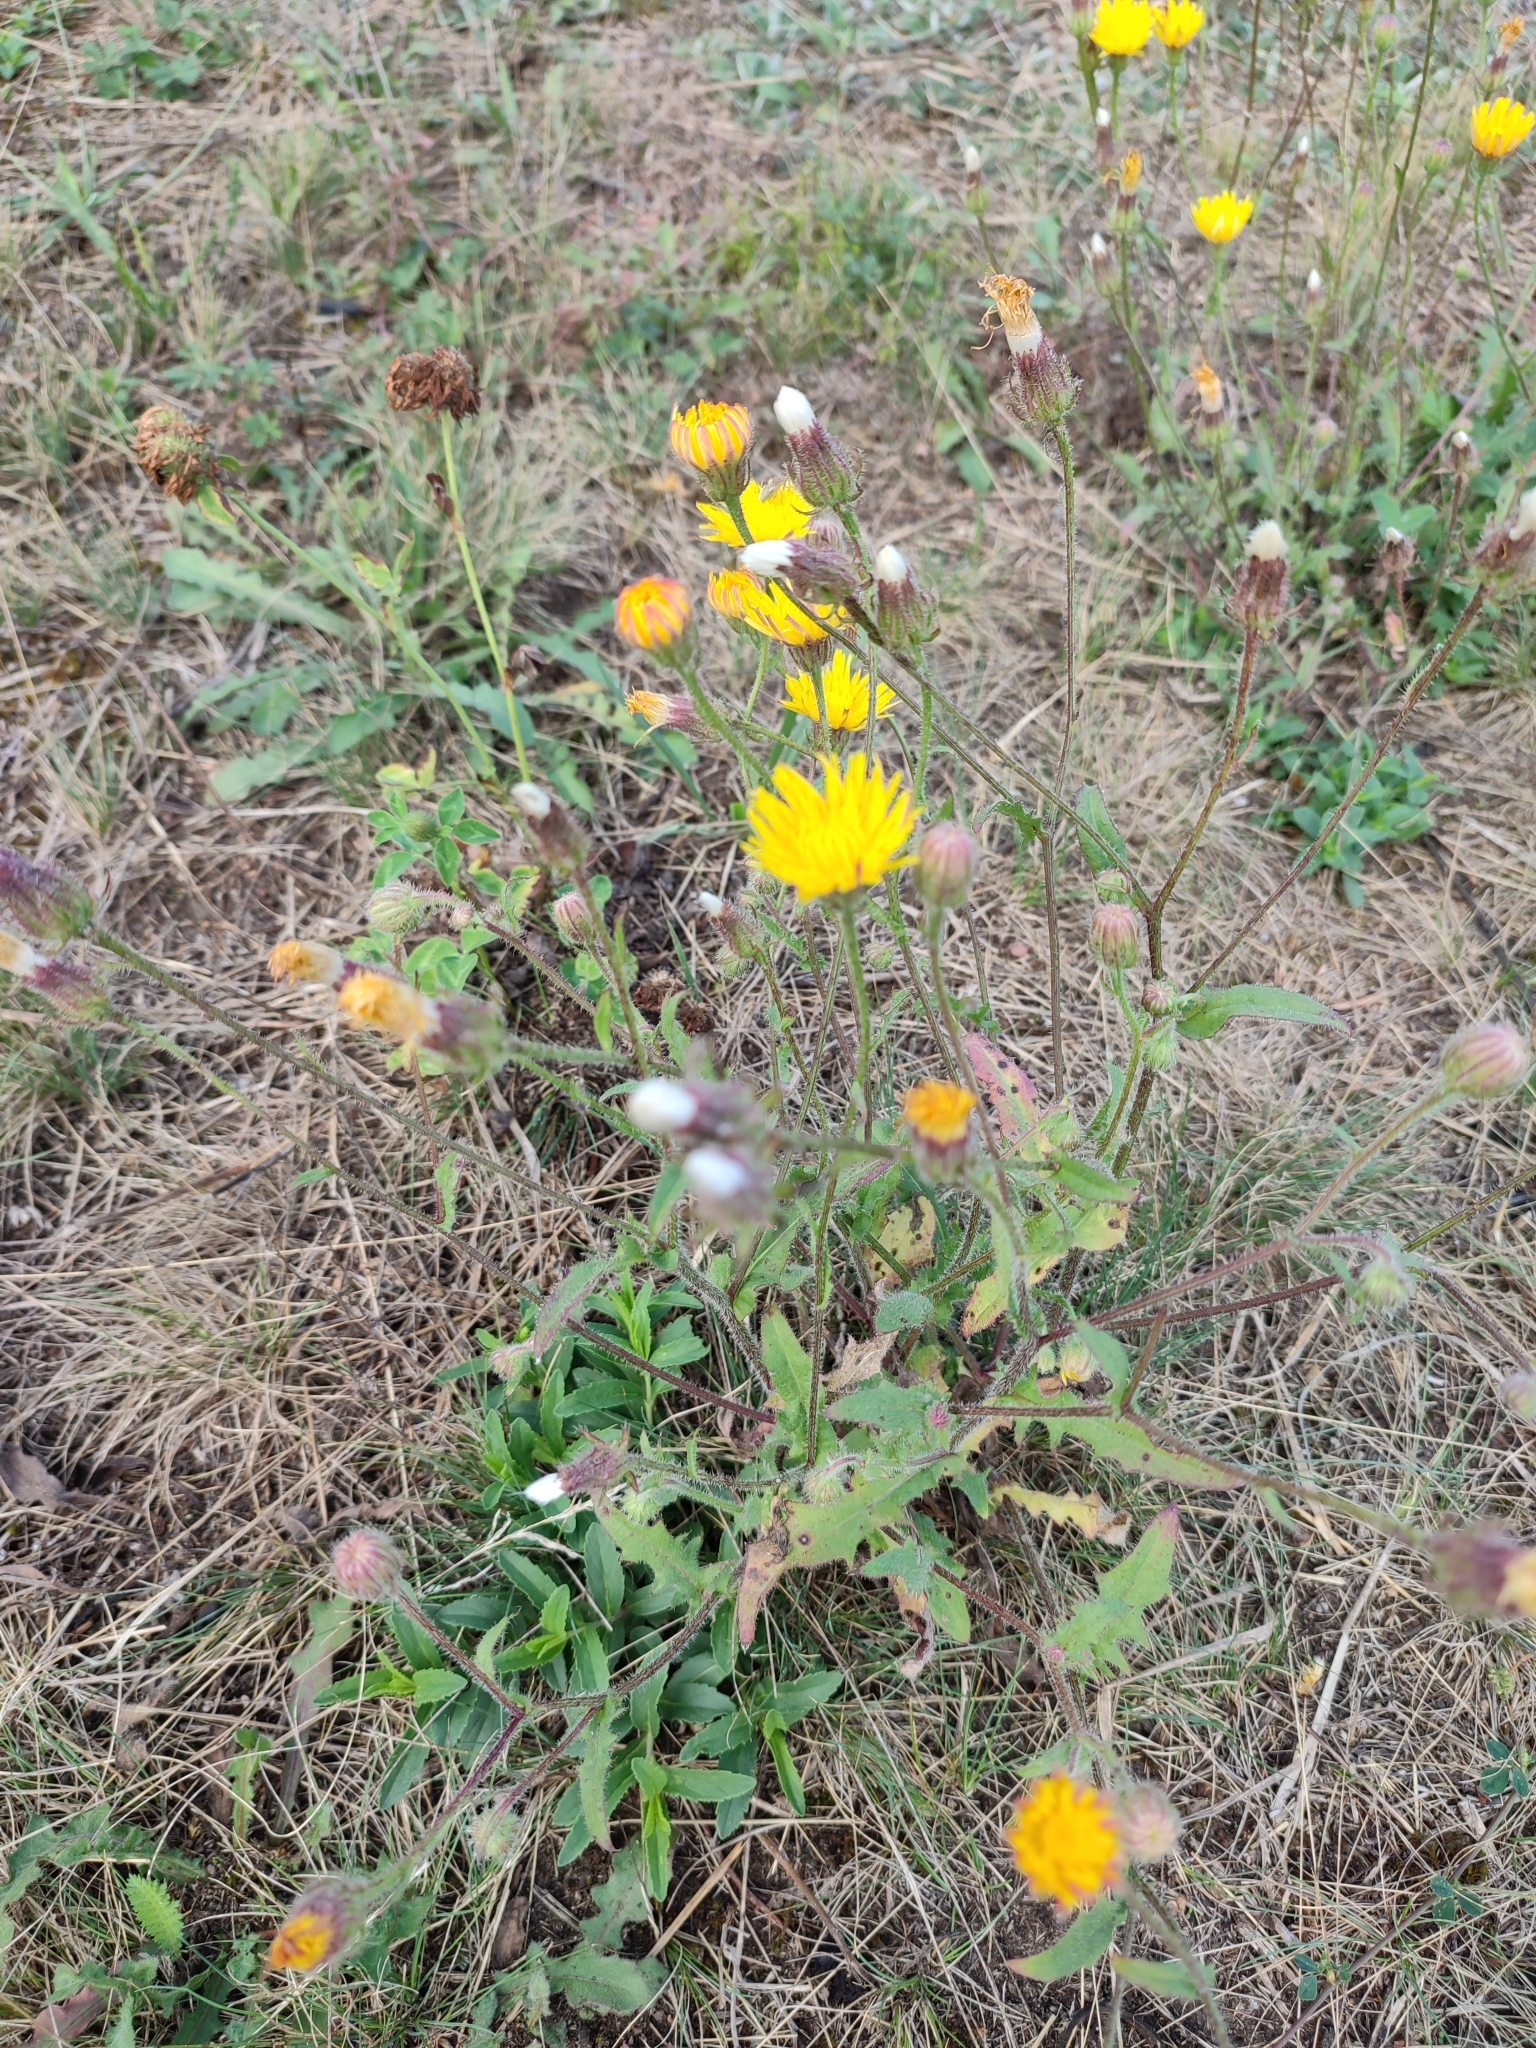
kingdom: Plantae
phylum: Tracheophyta
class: Magnoliopsida
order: Asterales
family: Asteraceae
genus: Crepis
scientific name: Crepis foetida
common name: Stinking hawk's-beard
